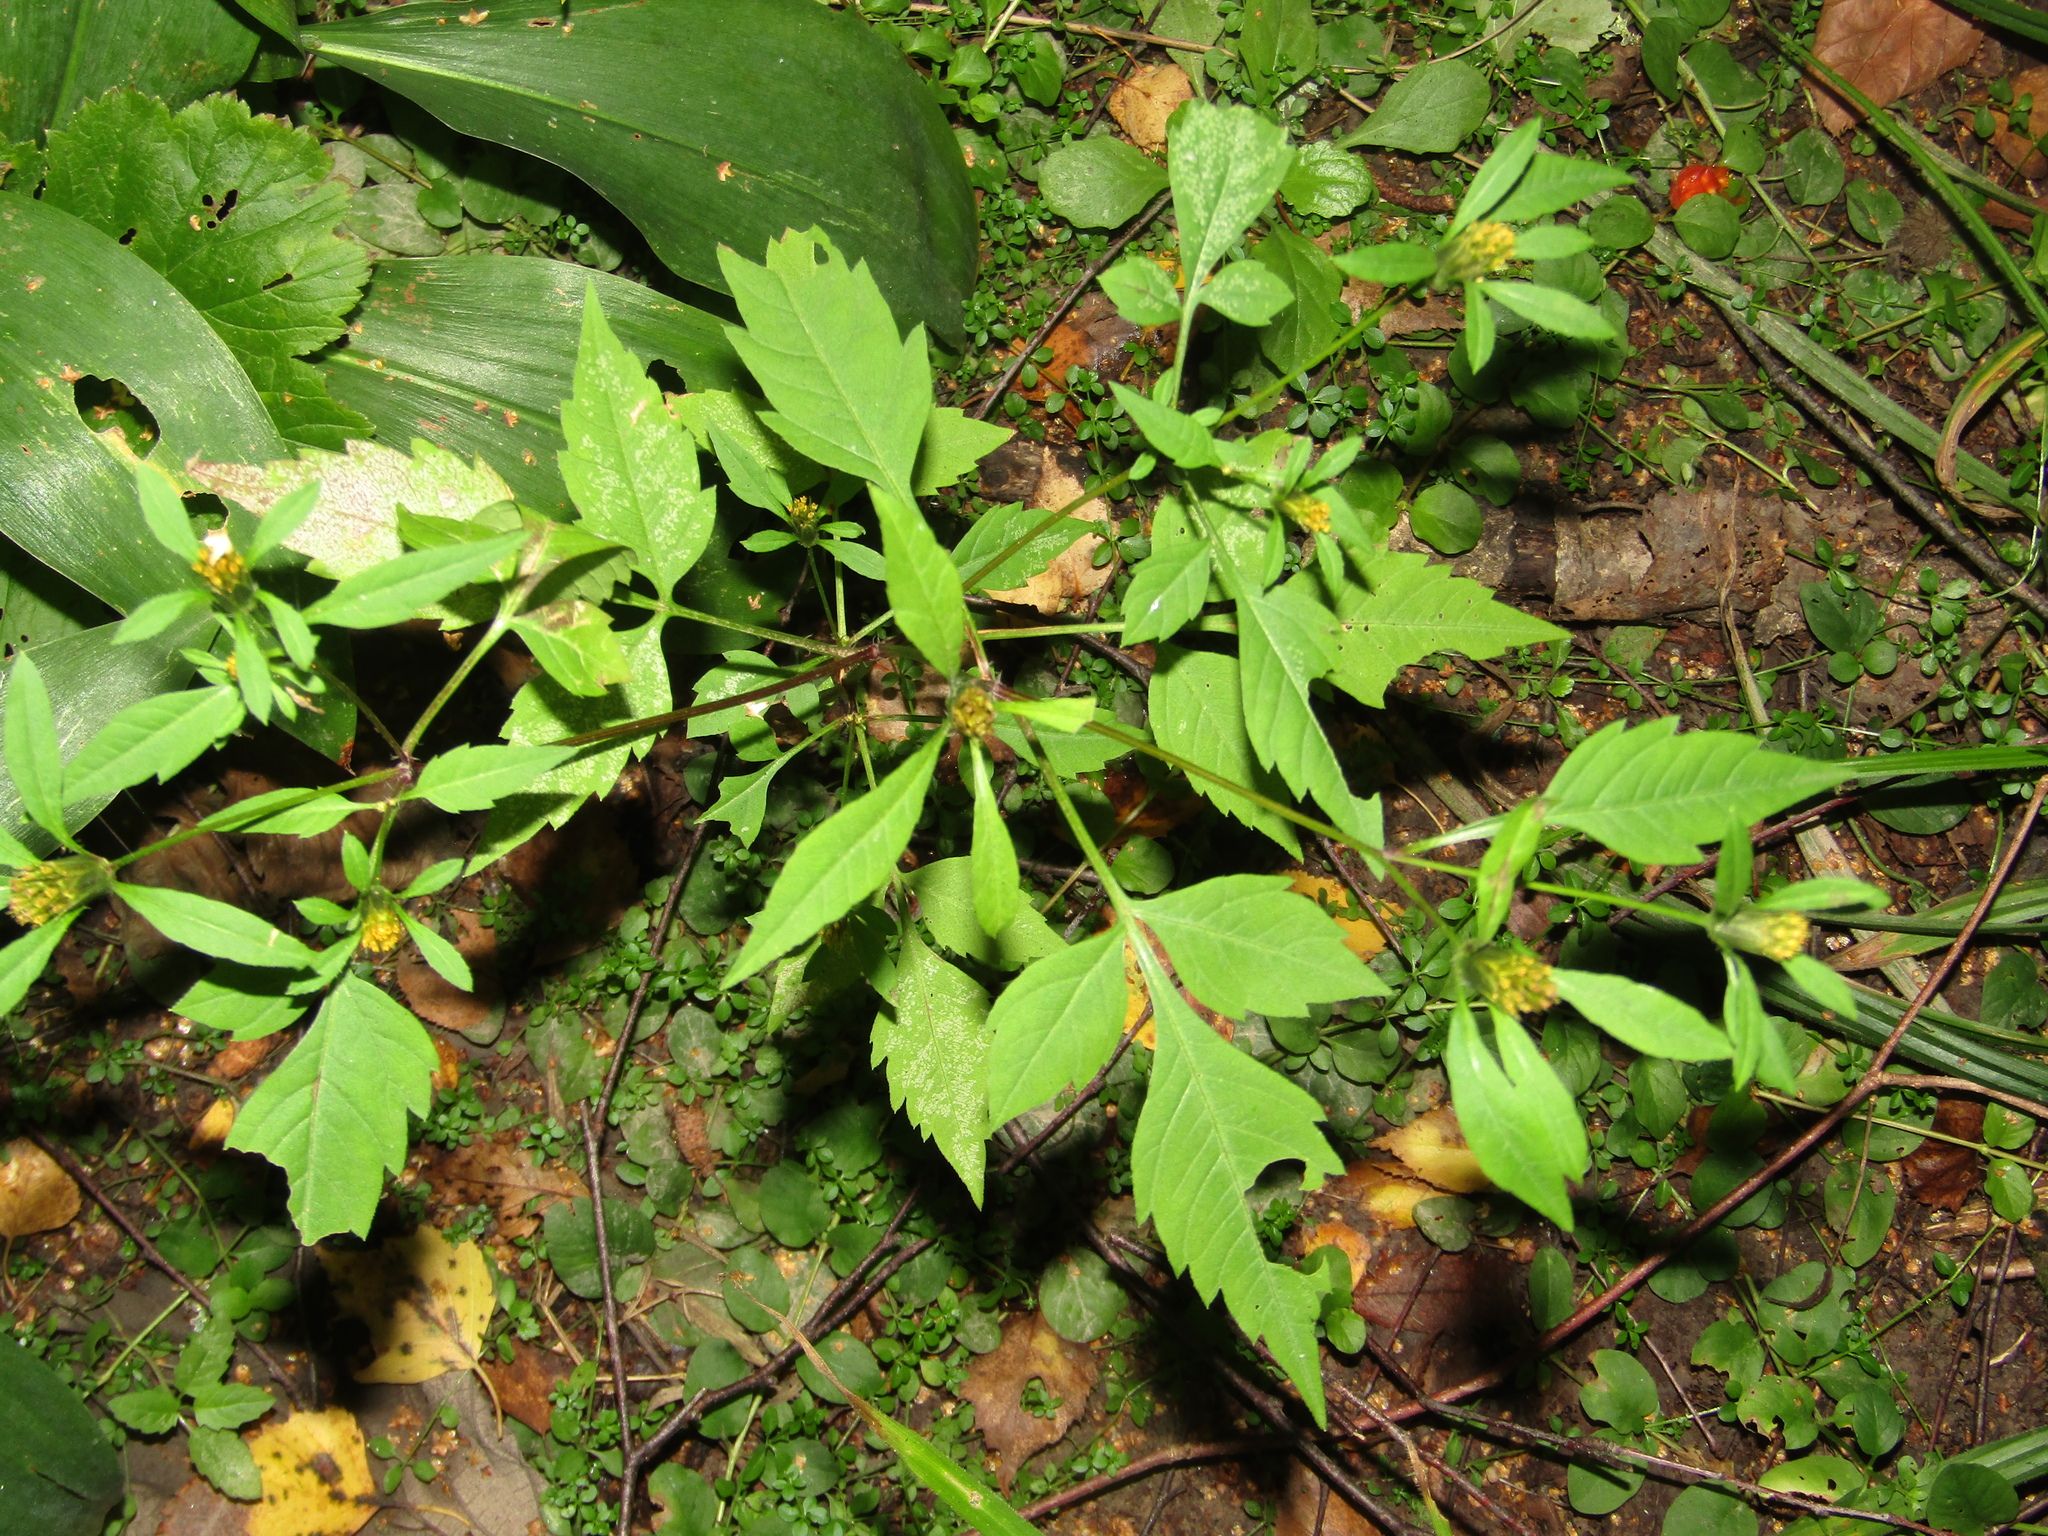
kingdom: Plantae
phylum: Tracheophyta
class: Magnoliopsida
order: Asterales
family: Asteraceae
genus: Bidens
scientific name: Bidens frondosa
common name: Beggarticks
